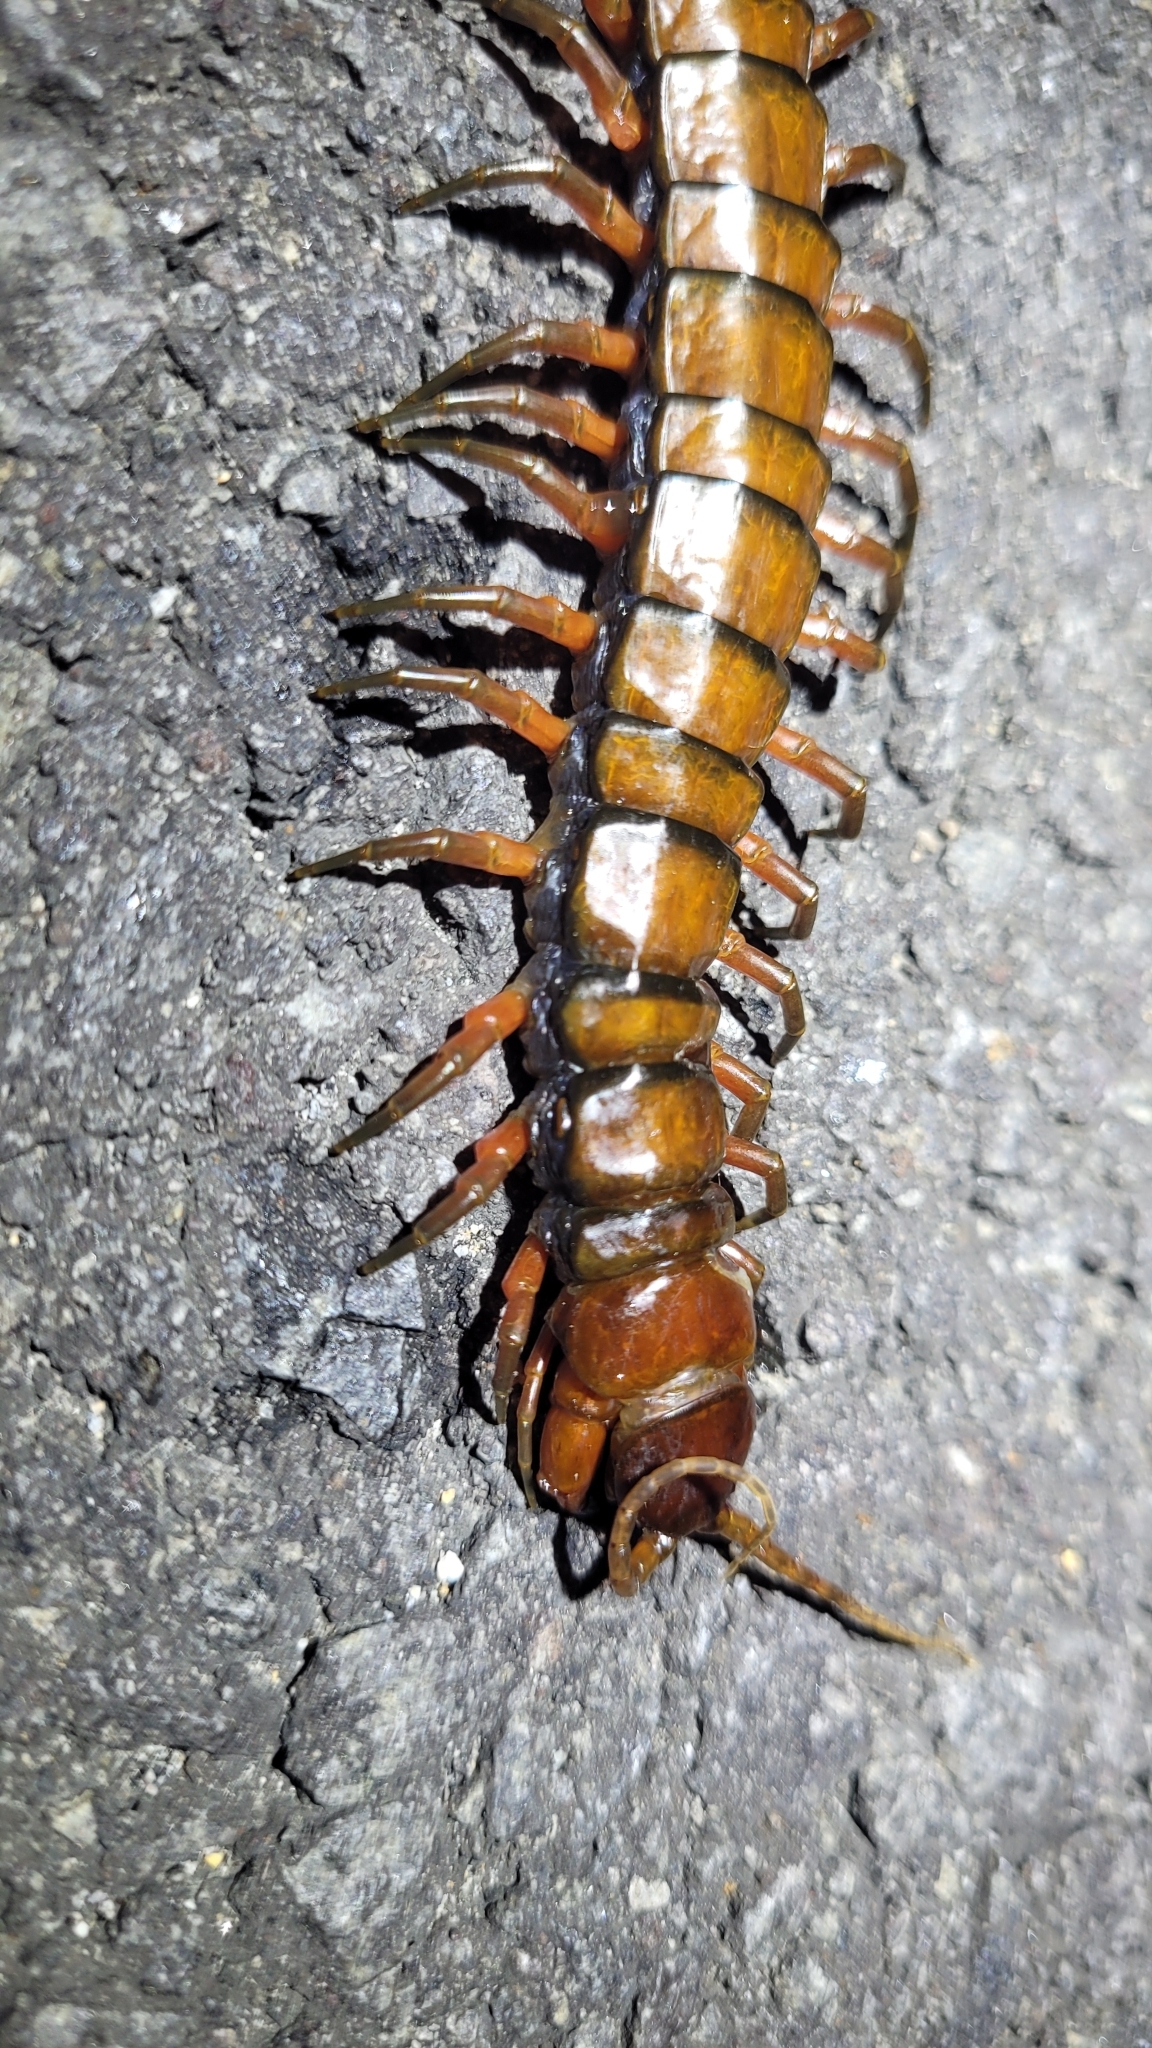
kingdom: Animalia
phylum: Arthropoda
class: Chilopoda
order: Scolopendromorpha
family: Scolopendridae
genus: Scolopendra
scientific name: Scolopendra subspinipes
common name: Centipede
